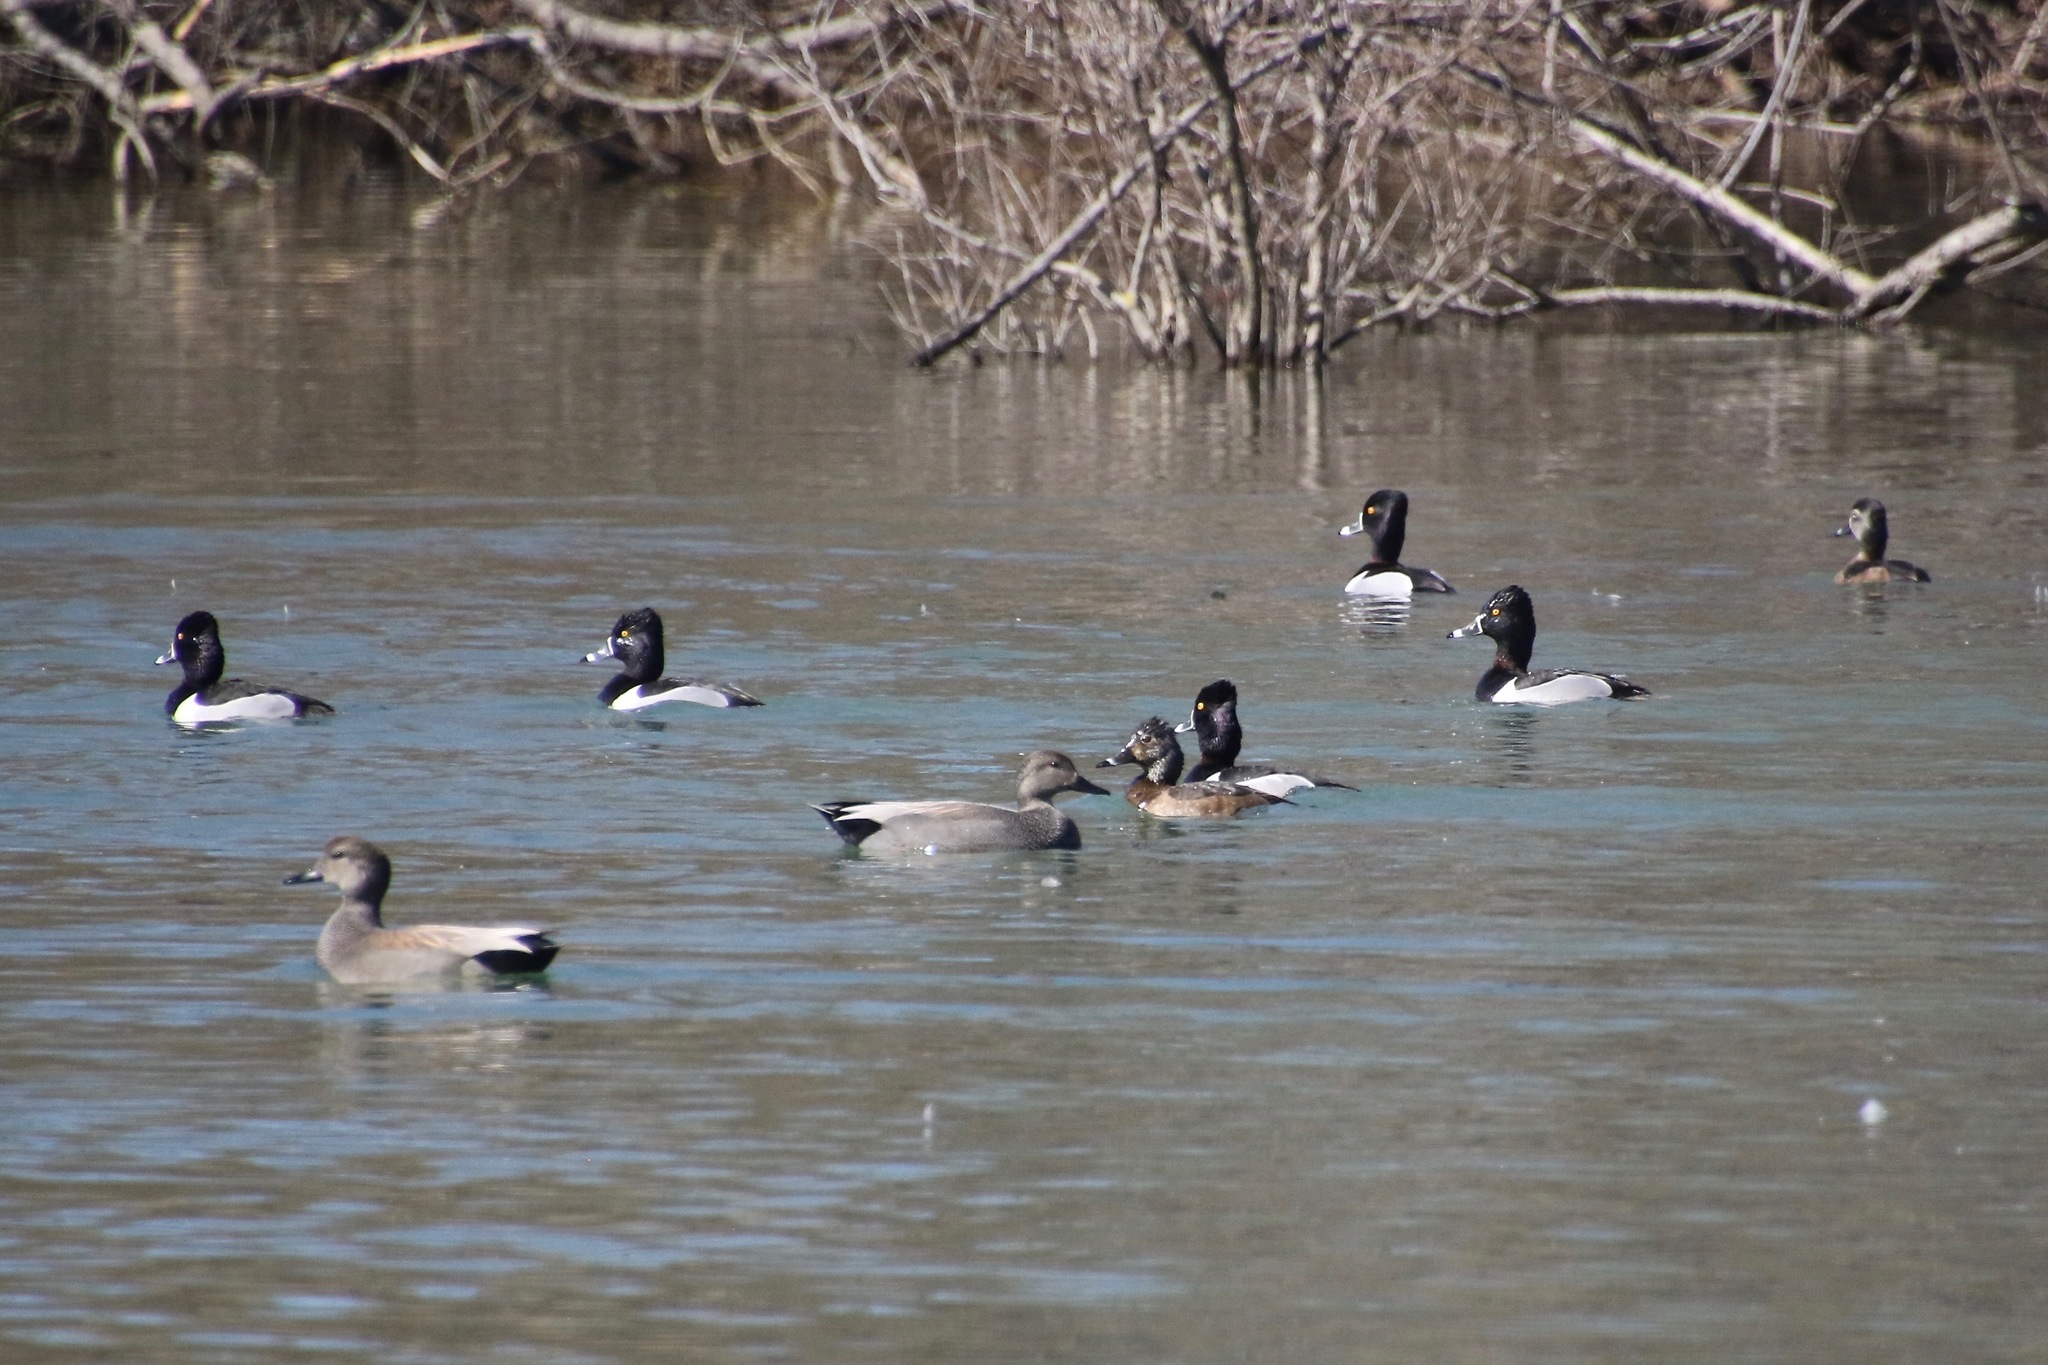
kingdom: Animalia
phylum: Chordata
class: Aves
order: Anseriformes
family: Anatidae
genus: Aythya
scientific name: Aythya collaris
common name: Ring-necked duck
